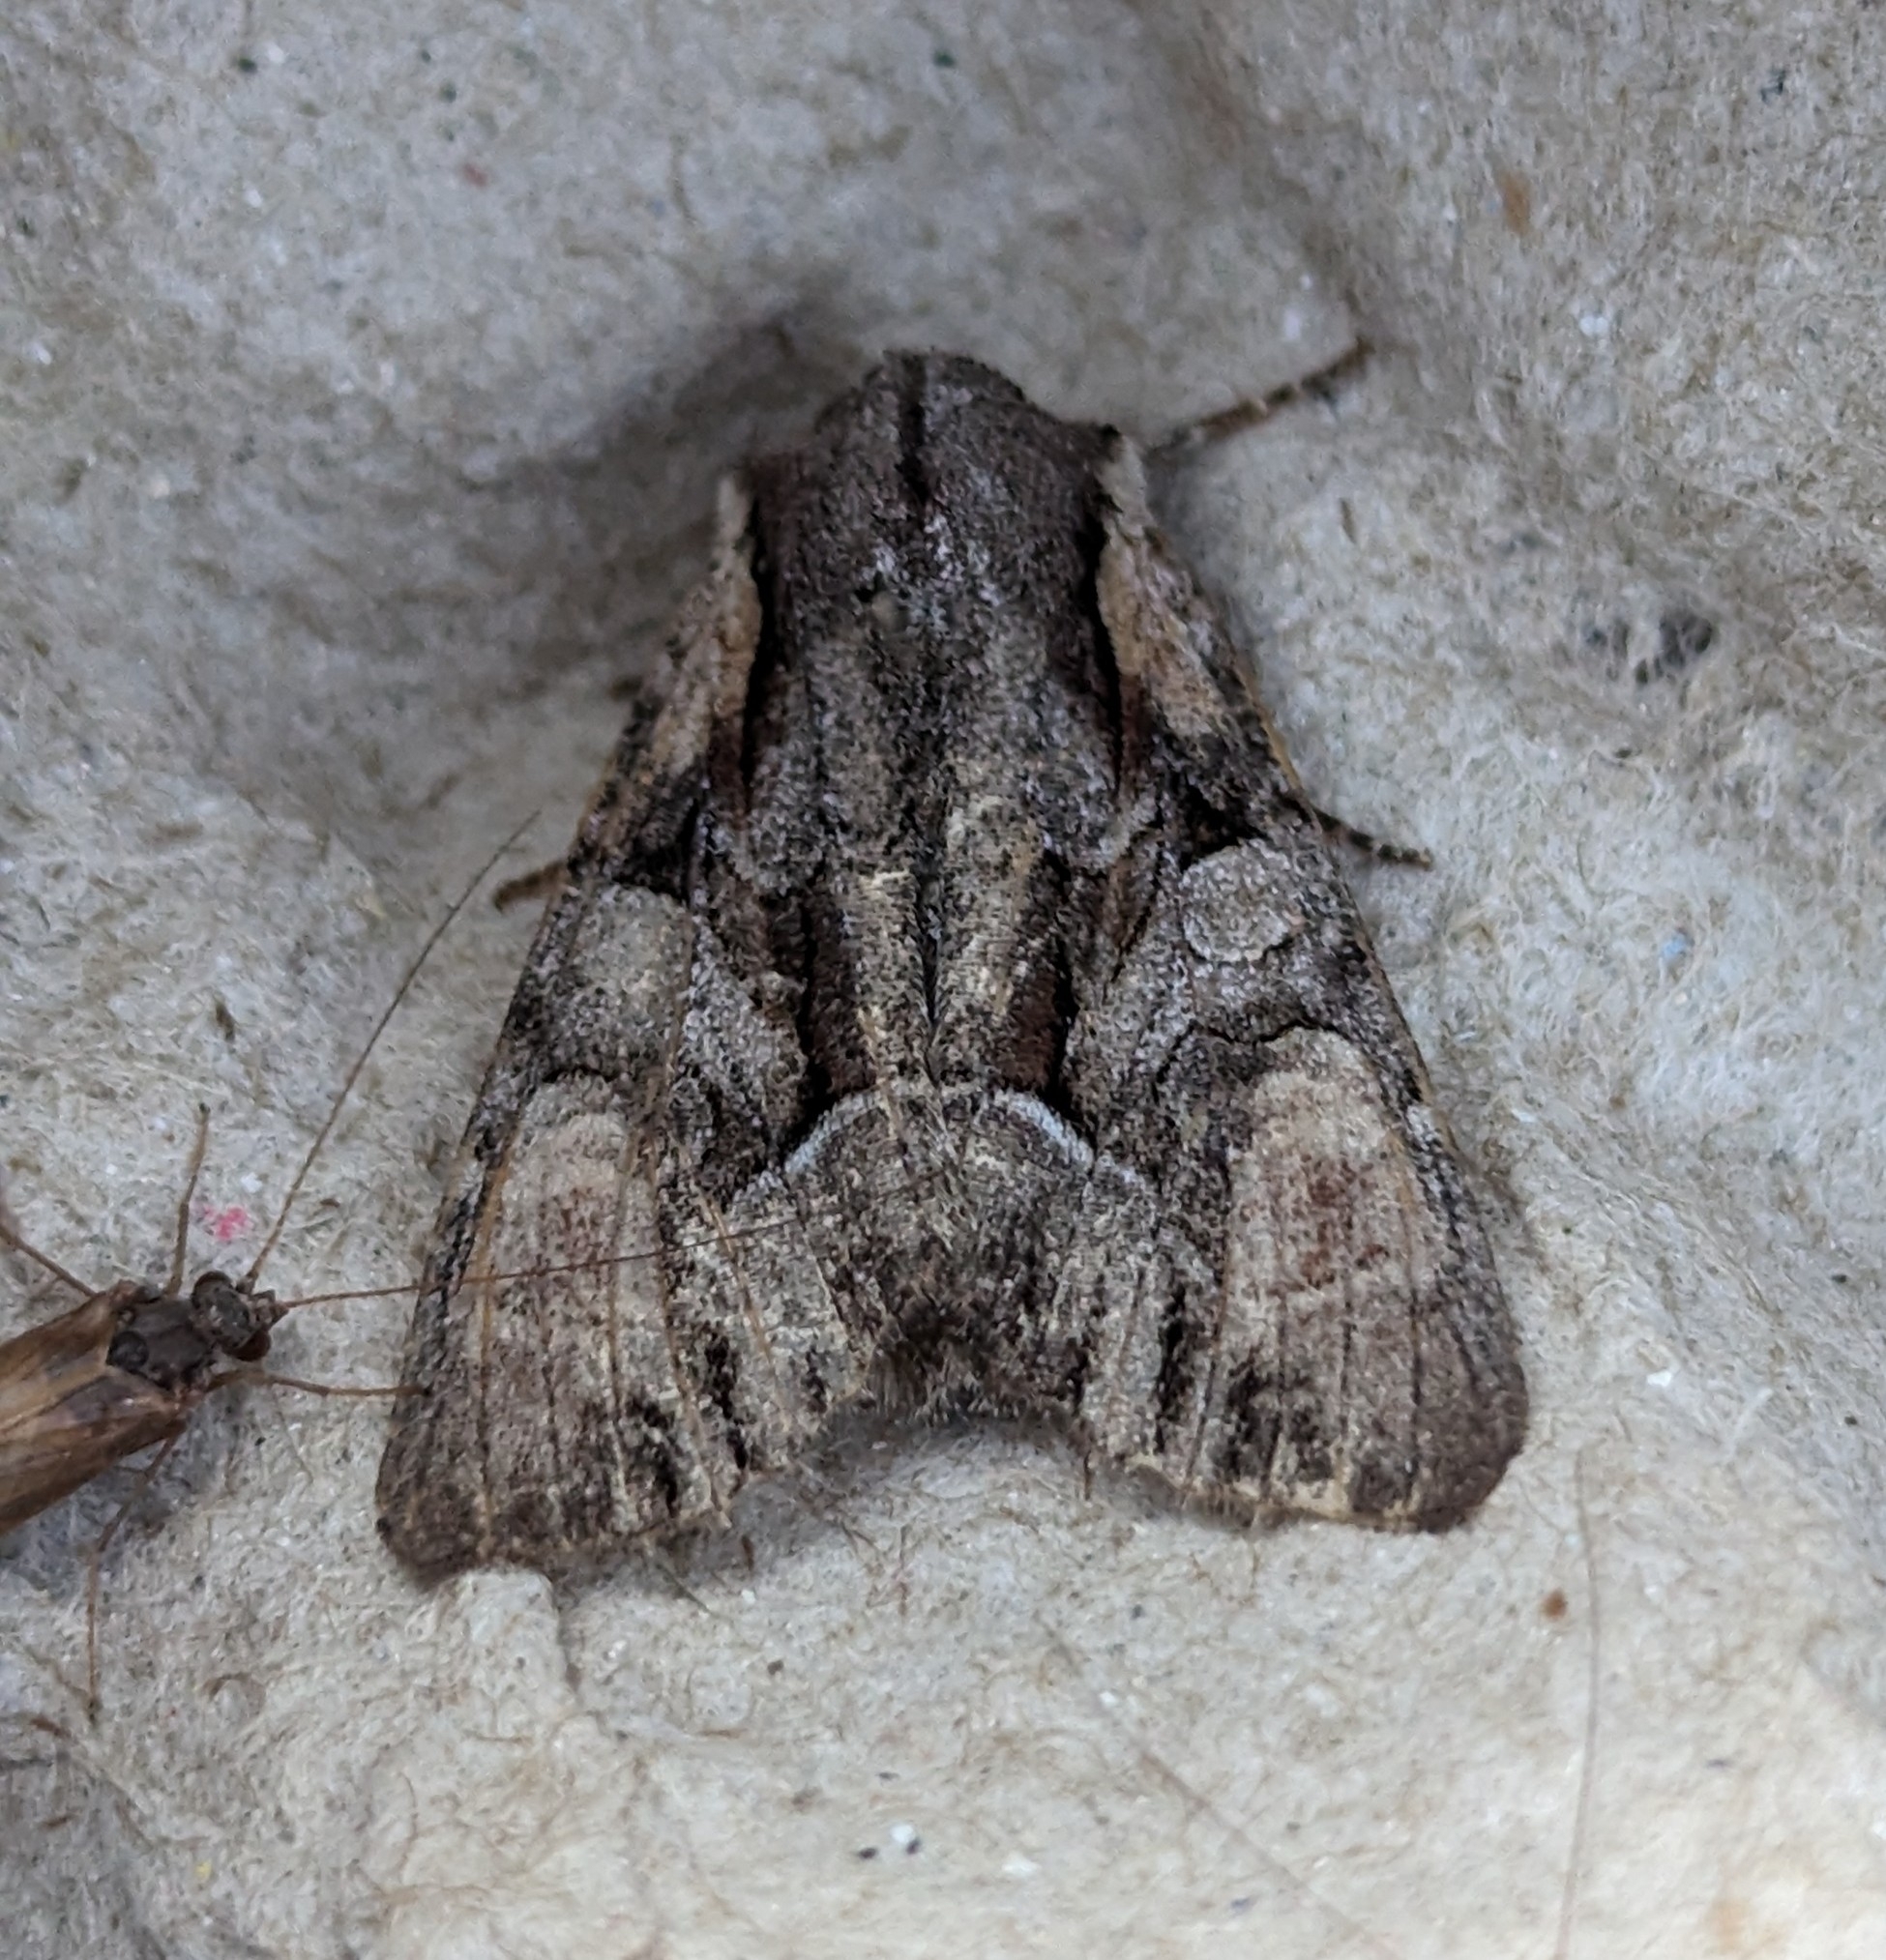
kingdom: Animalia
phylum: Arthropoda
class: Insecta
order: Lepidoptera
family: Noctuidae
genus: Lacanobia
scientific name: Lacanobia subjuncta
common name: Speckled cutworm moth
